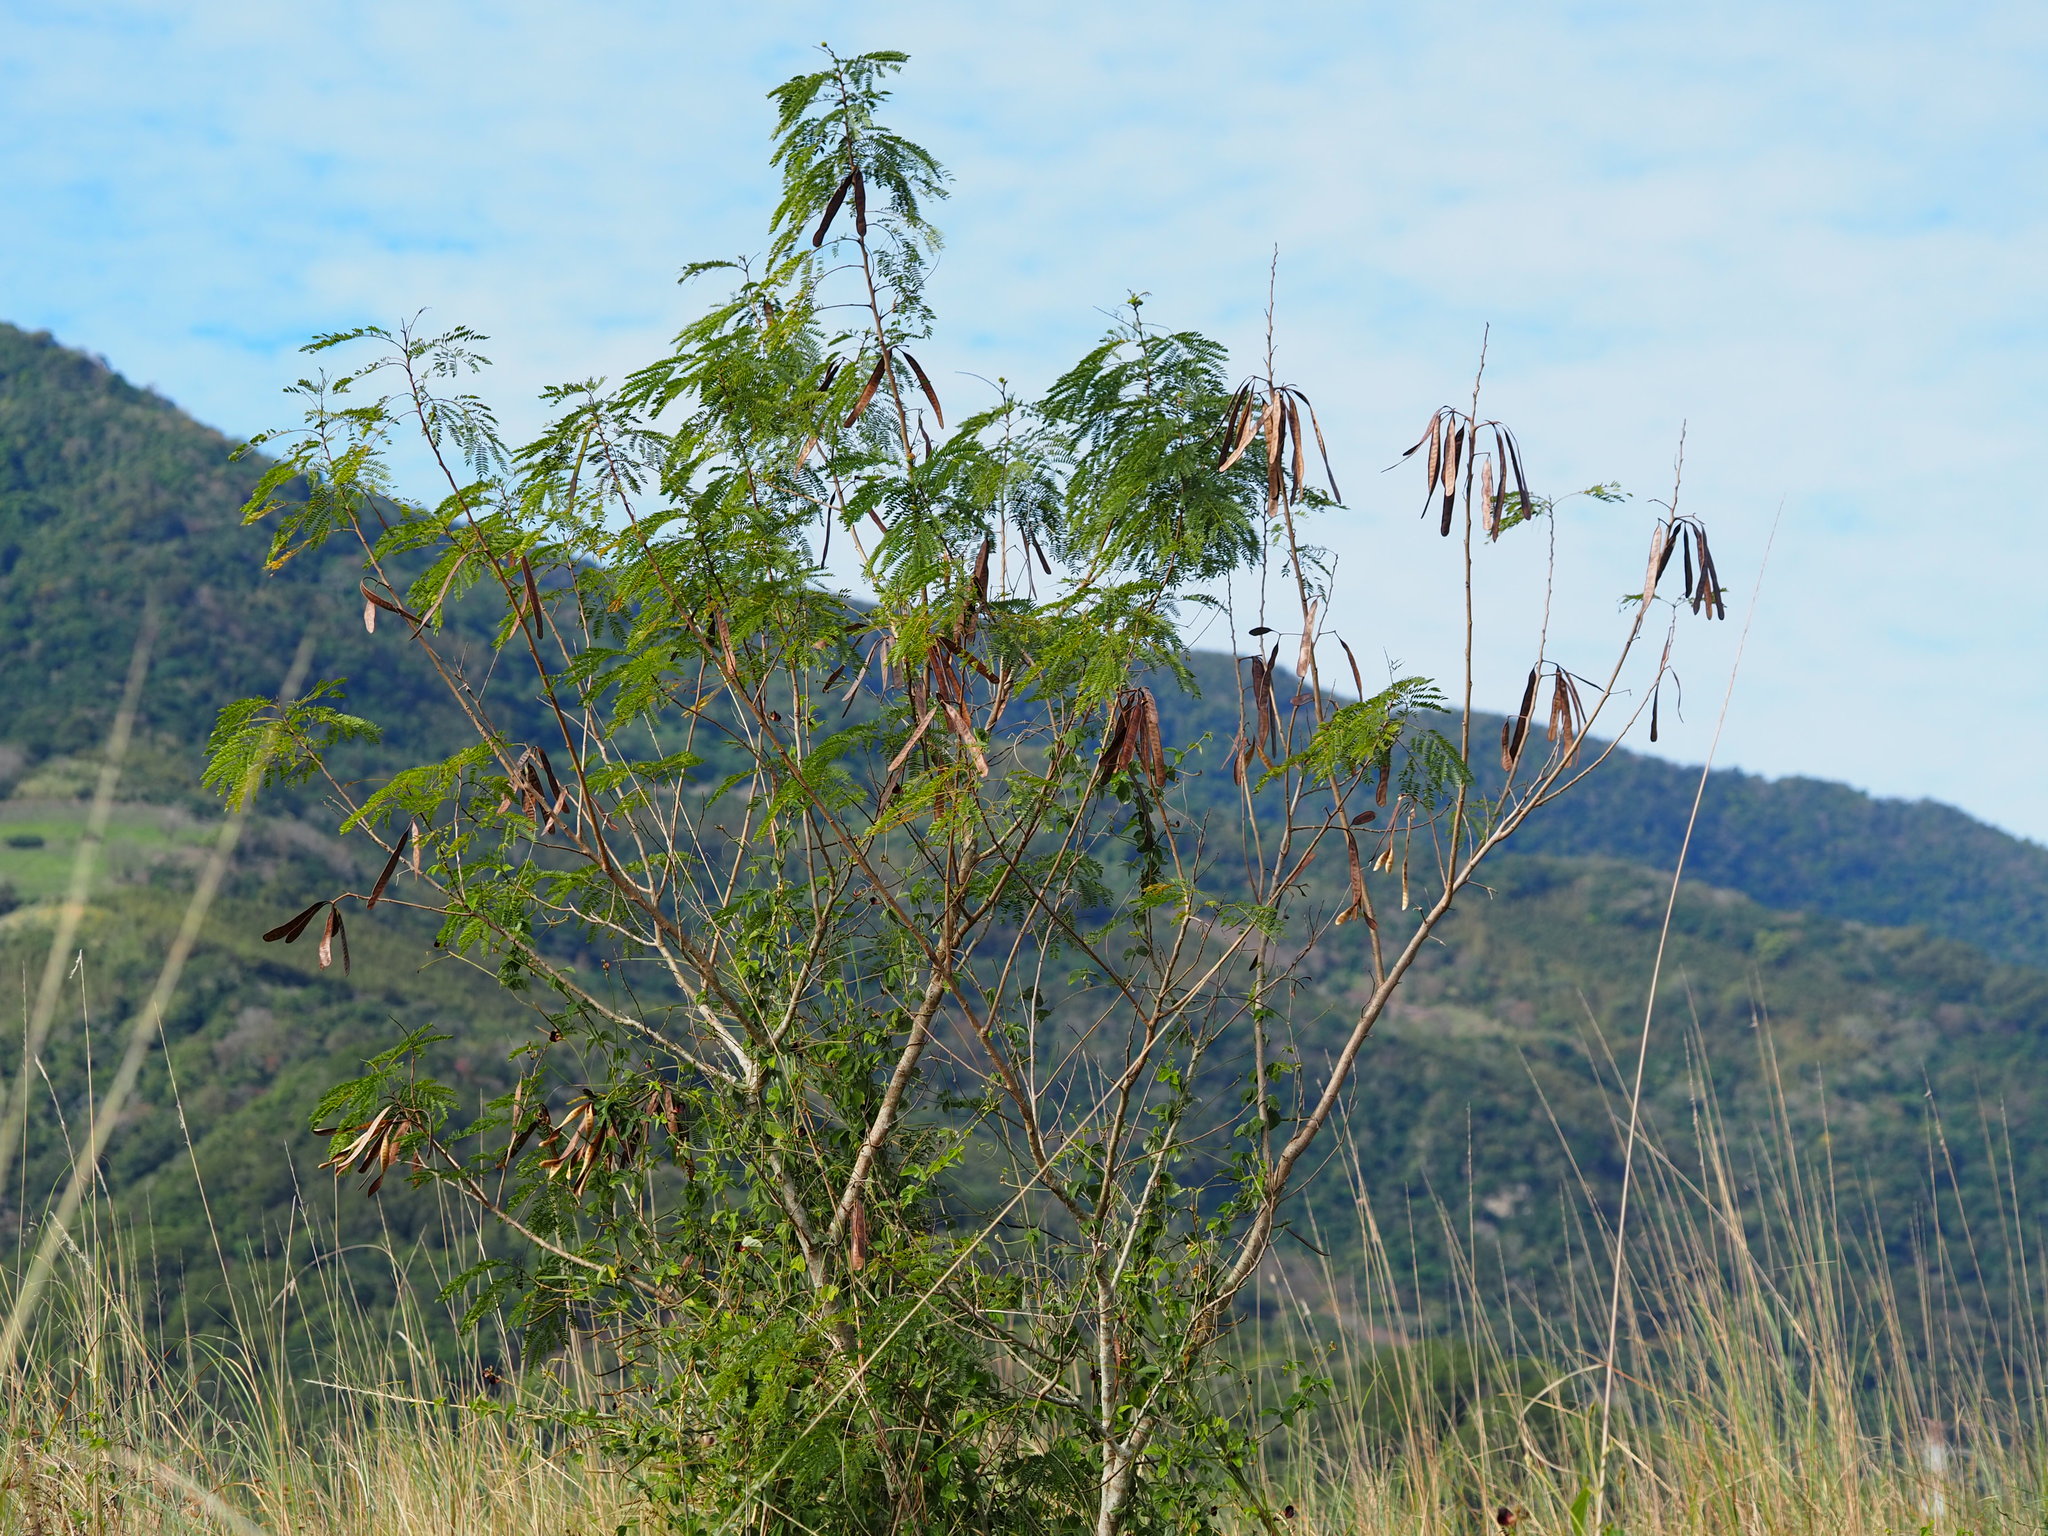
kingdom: Plantae
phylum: Tracheophyta
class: Magnoliopsida
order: Fabales
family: Fabaceae
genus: Leucaena
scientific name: Leucaena leucocephala
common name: White leadtree
